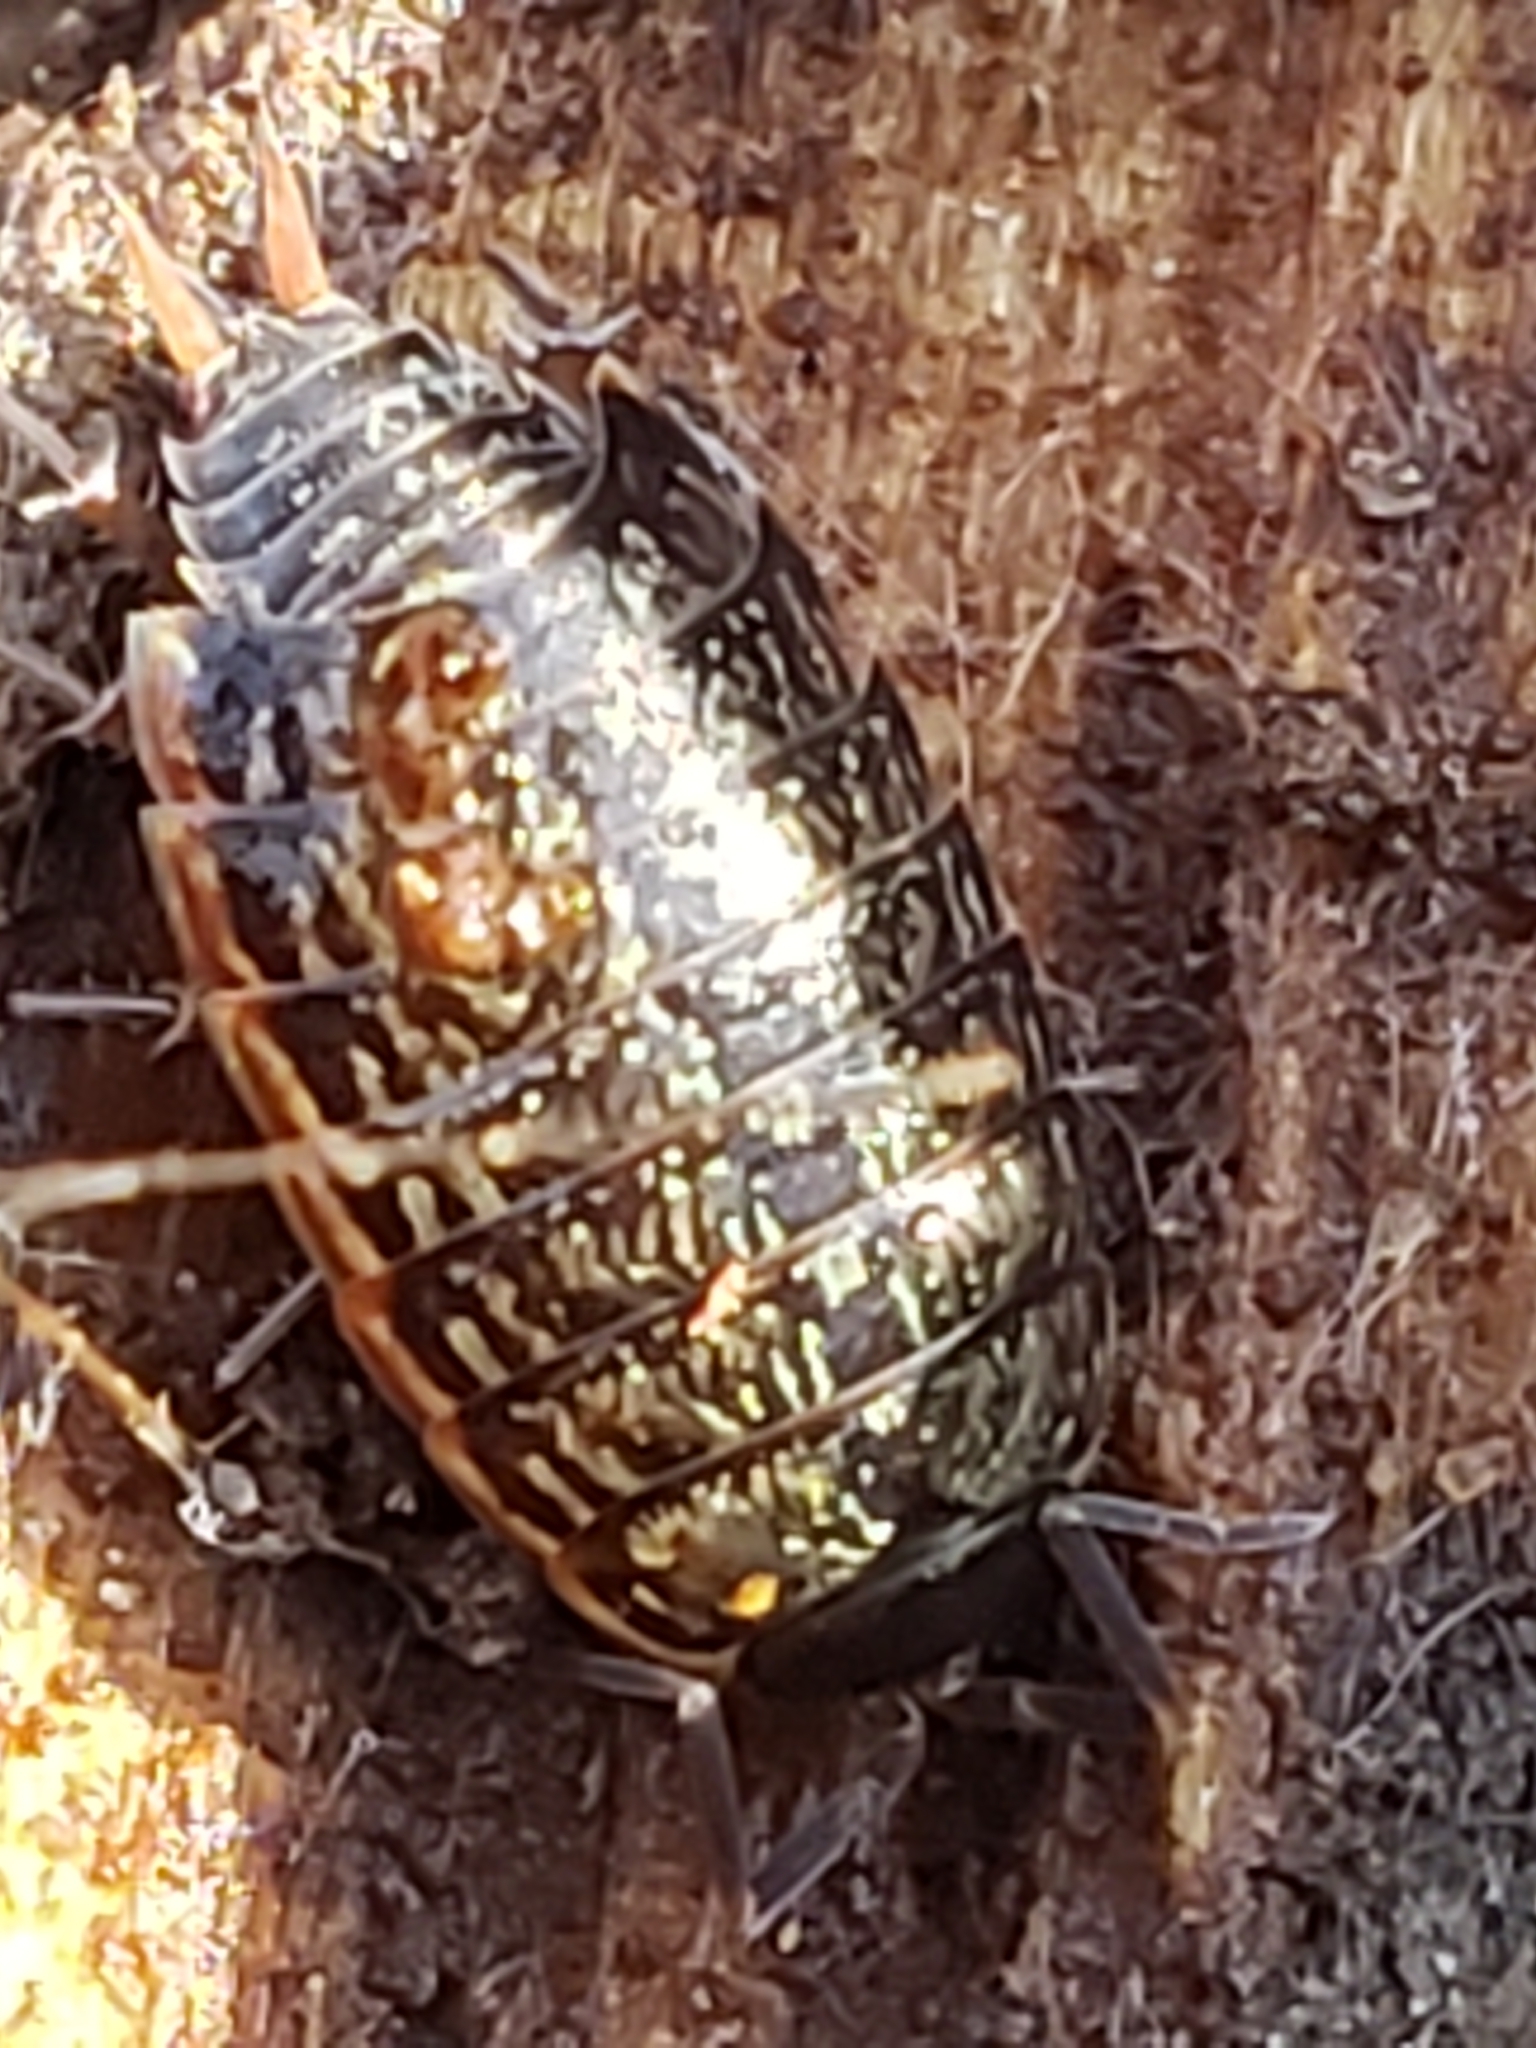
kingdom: Animalia
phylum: Arthropoda
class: Malacostraca
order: Isopoda
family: Philosciidae
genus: Philoscia
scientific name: Philoscia muscorum
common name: Common striped woodlouse
